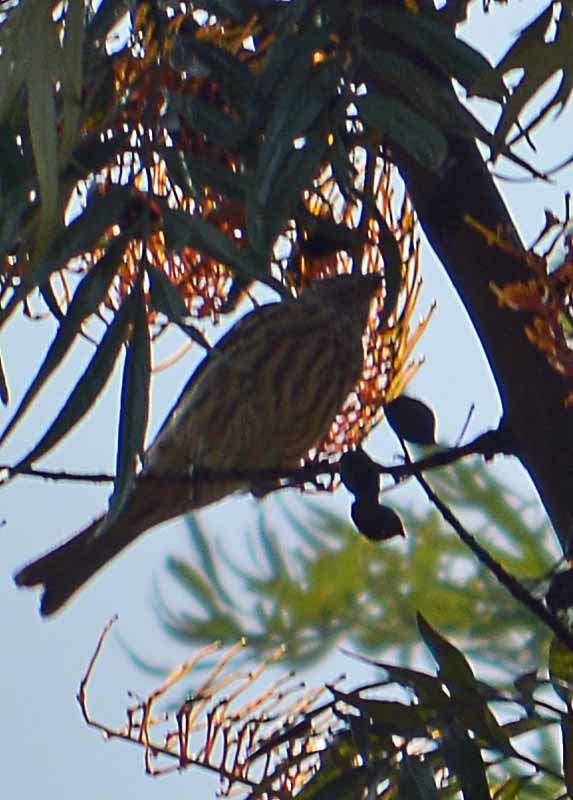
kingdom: Animalia
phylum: Chordata
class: Aves
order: Passeriformes
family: Fringillidae
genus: Haemorhous
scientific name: Haemorhous mexicanus
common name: House finch
